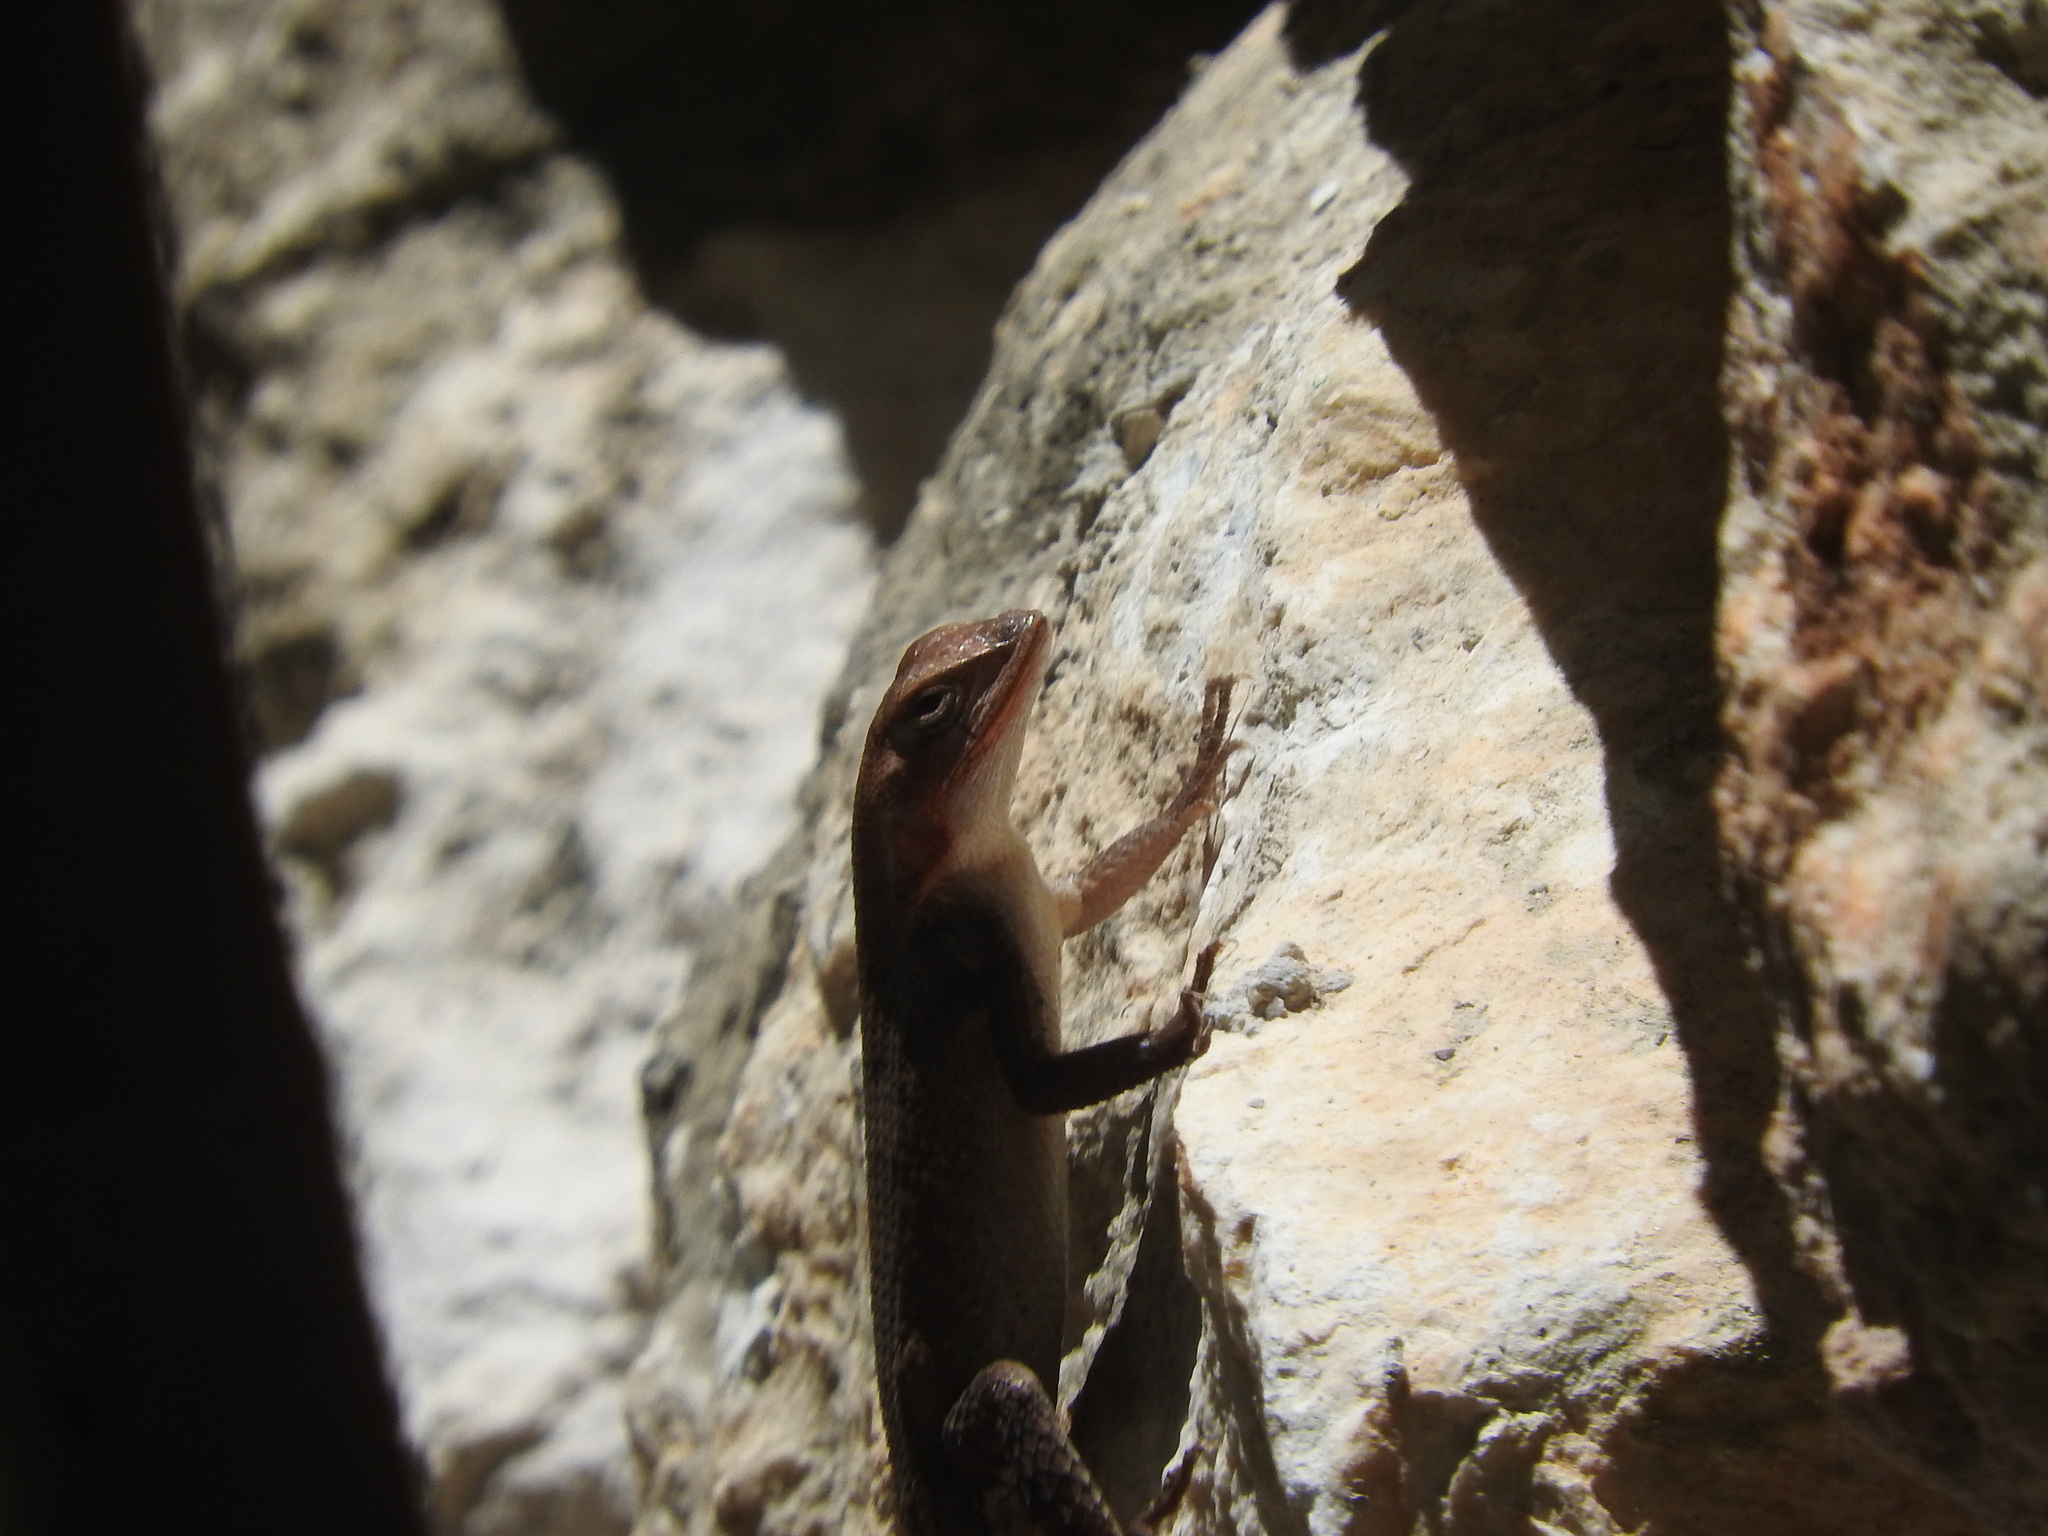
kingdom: Animalia
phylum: Chordata
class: Squamata
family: Phrynosomatidae
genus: Sceloporus
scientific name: Sceloporus chrysostictus
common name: Yellow-spotted spiny lizard
